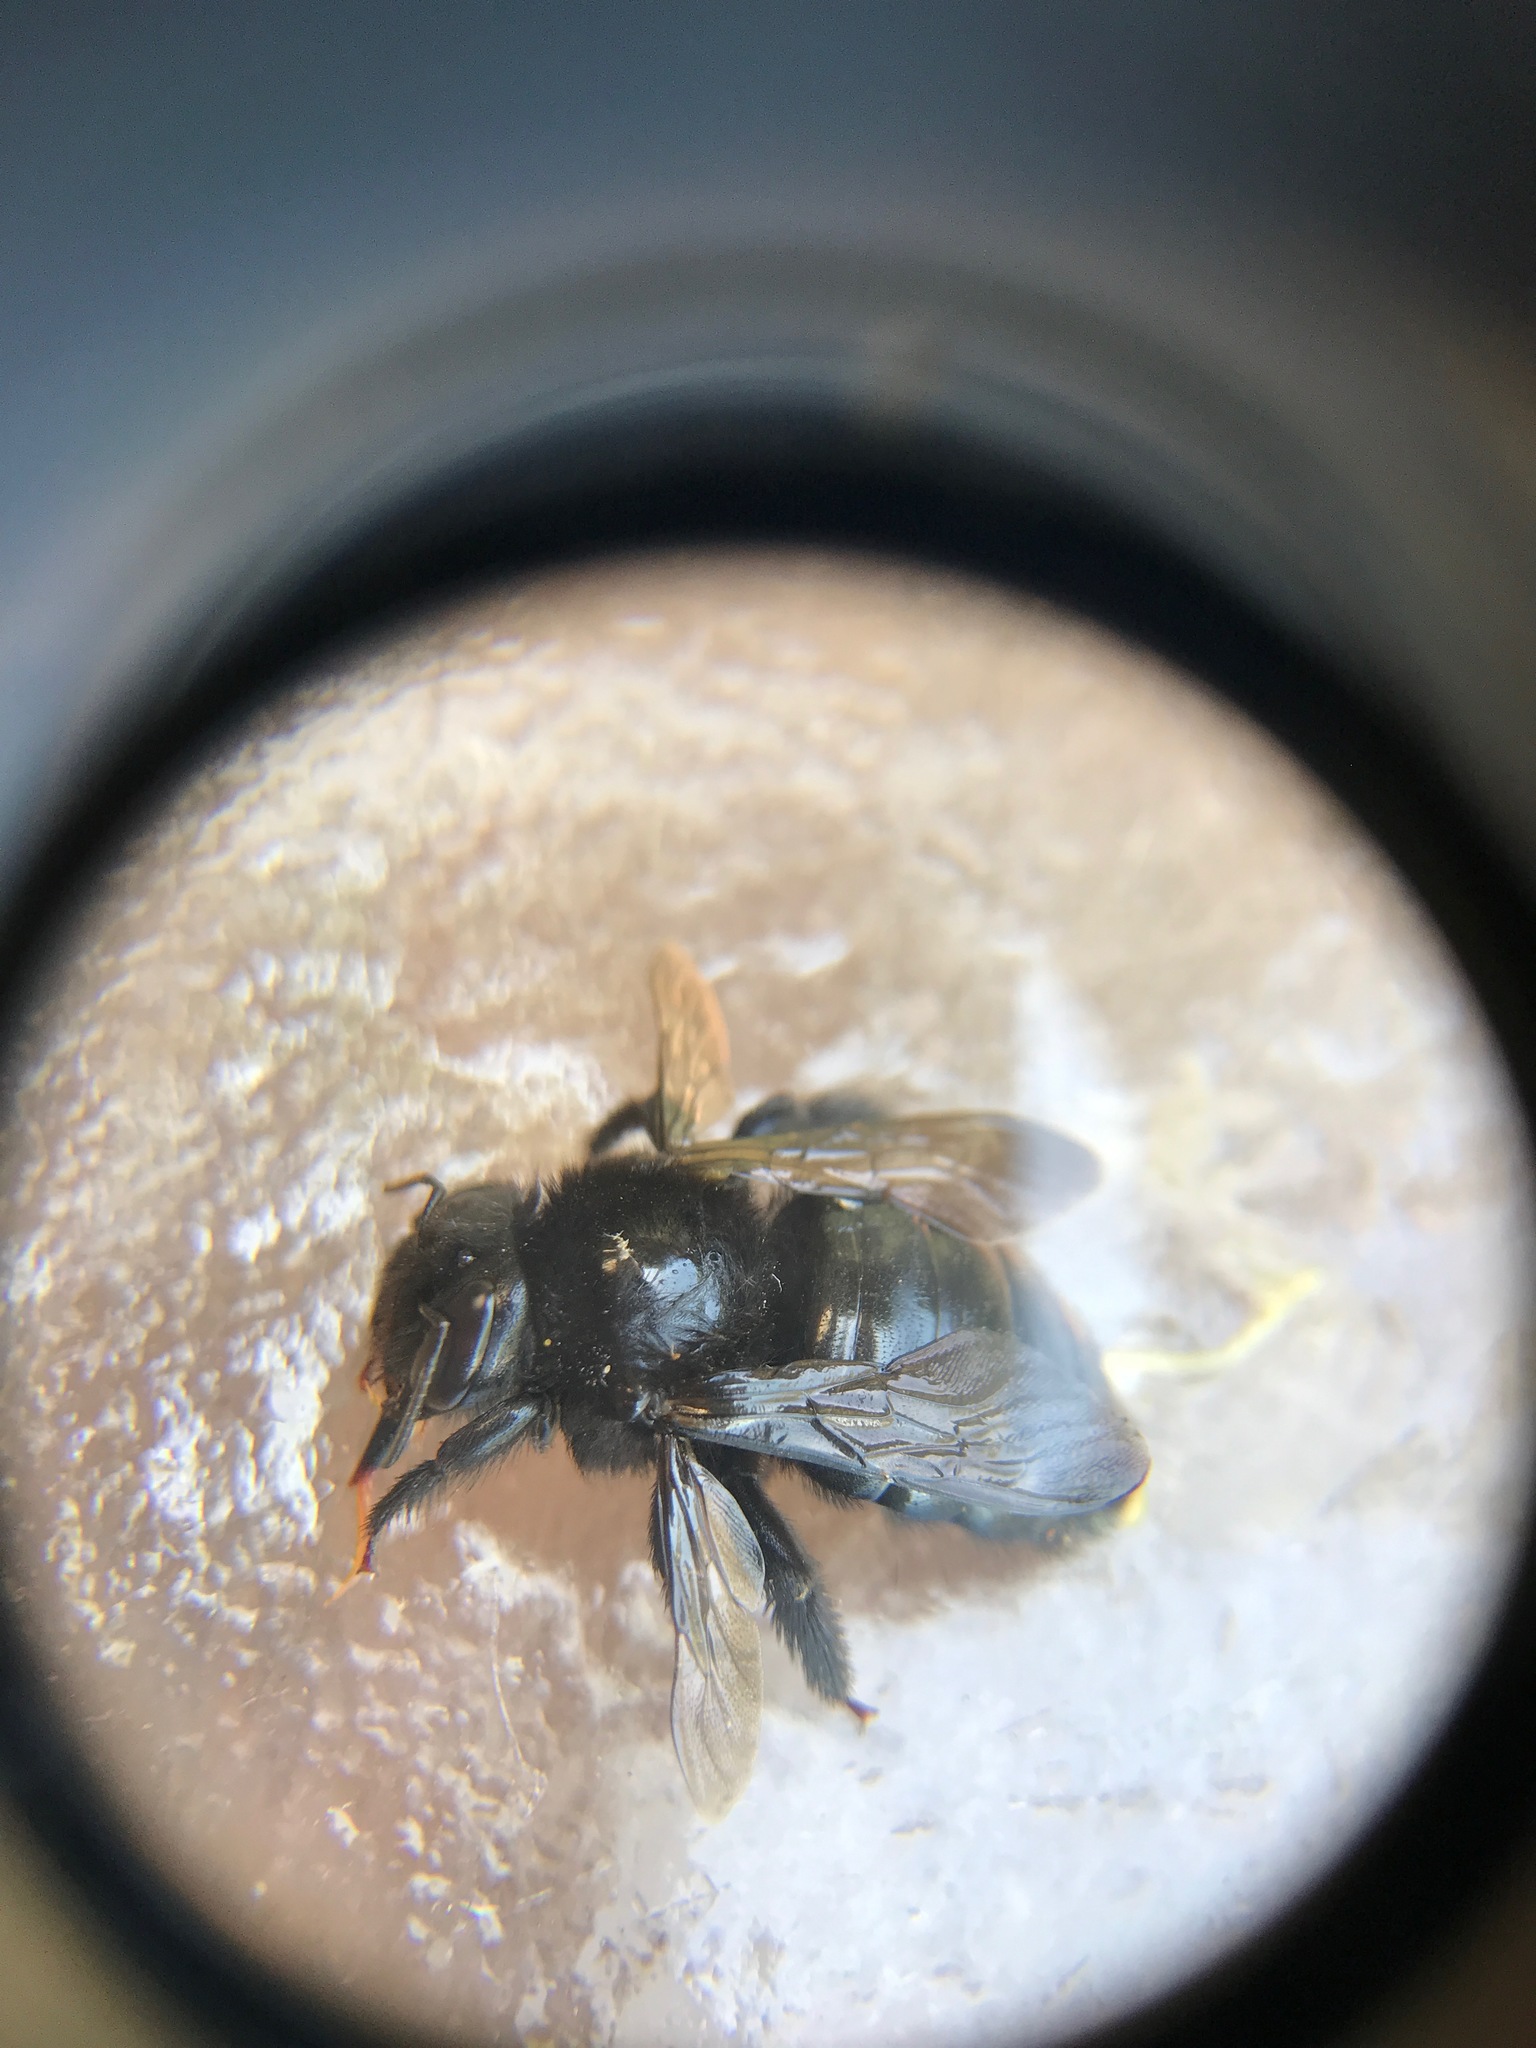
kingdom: Animalia
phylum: Arthropoda
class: Insecta
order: Hymenoptera
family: Apidae
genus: Xylocopa
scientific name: Xylocopa tabaniformis
